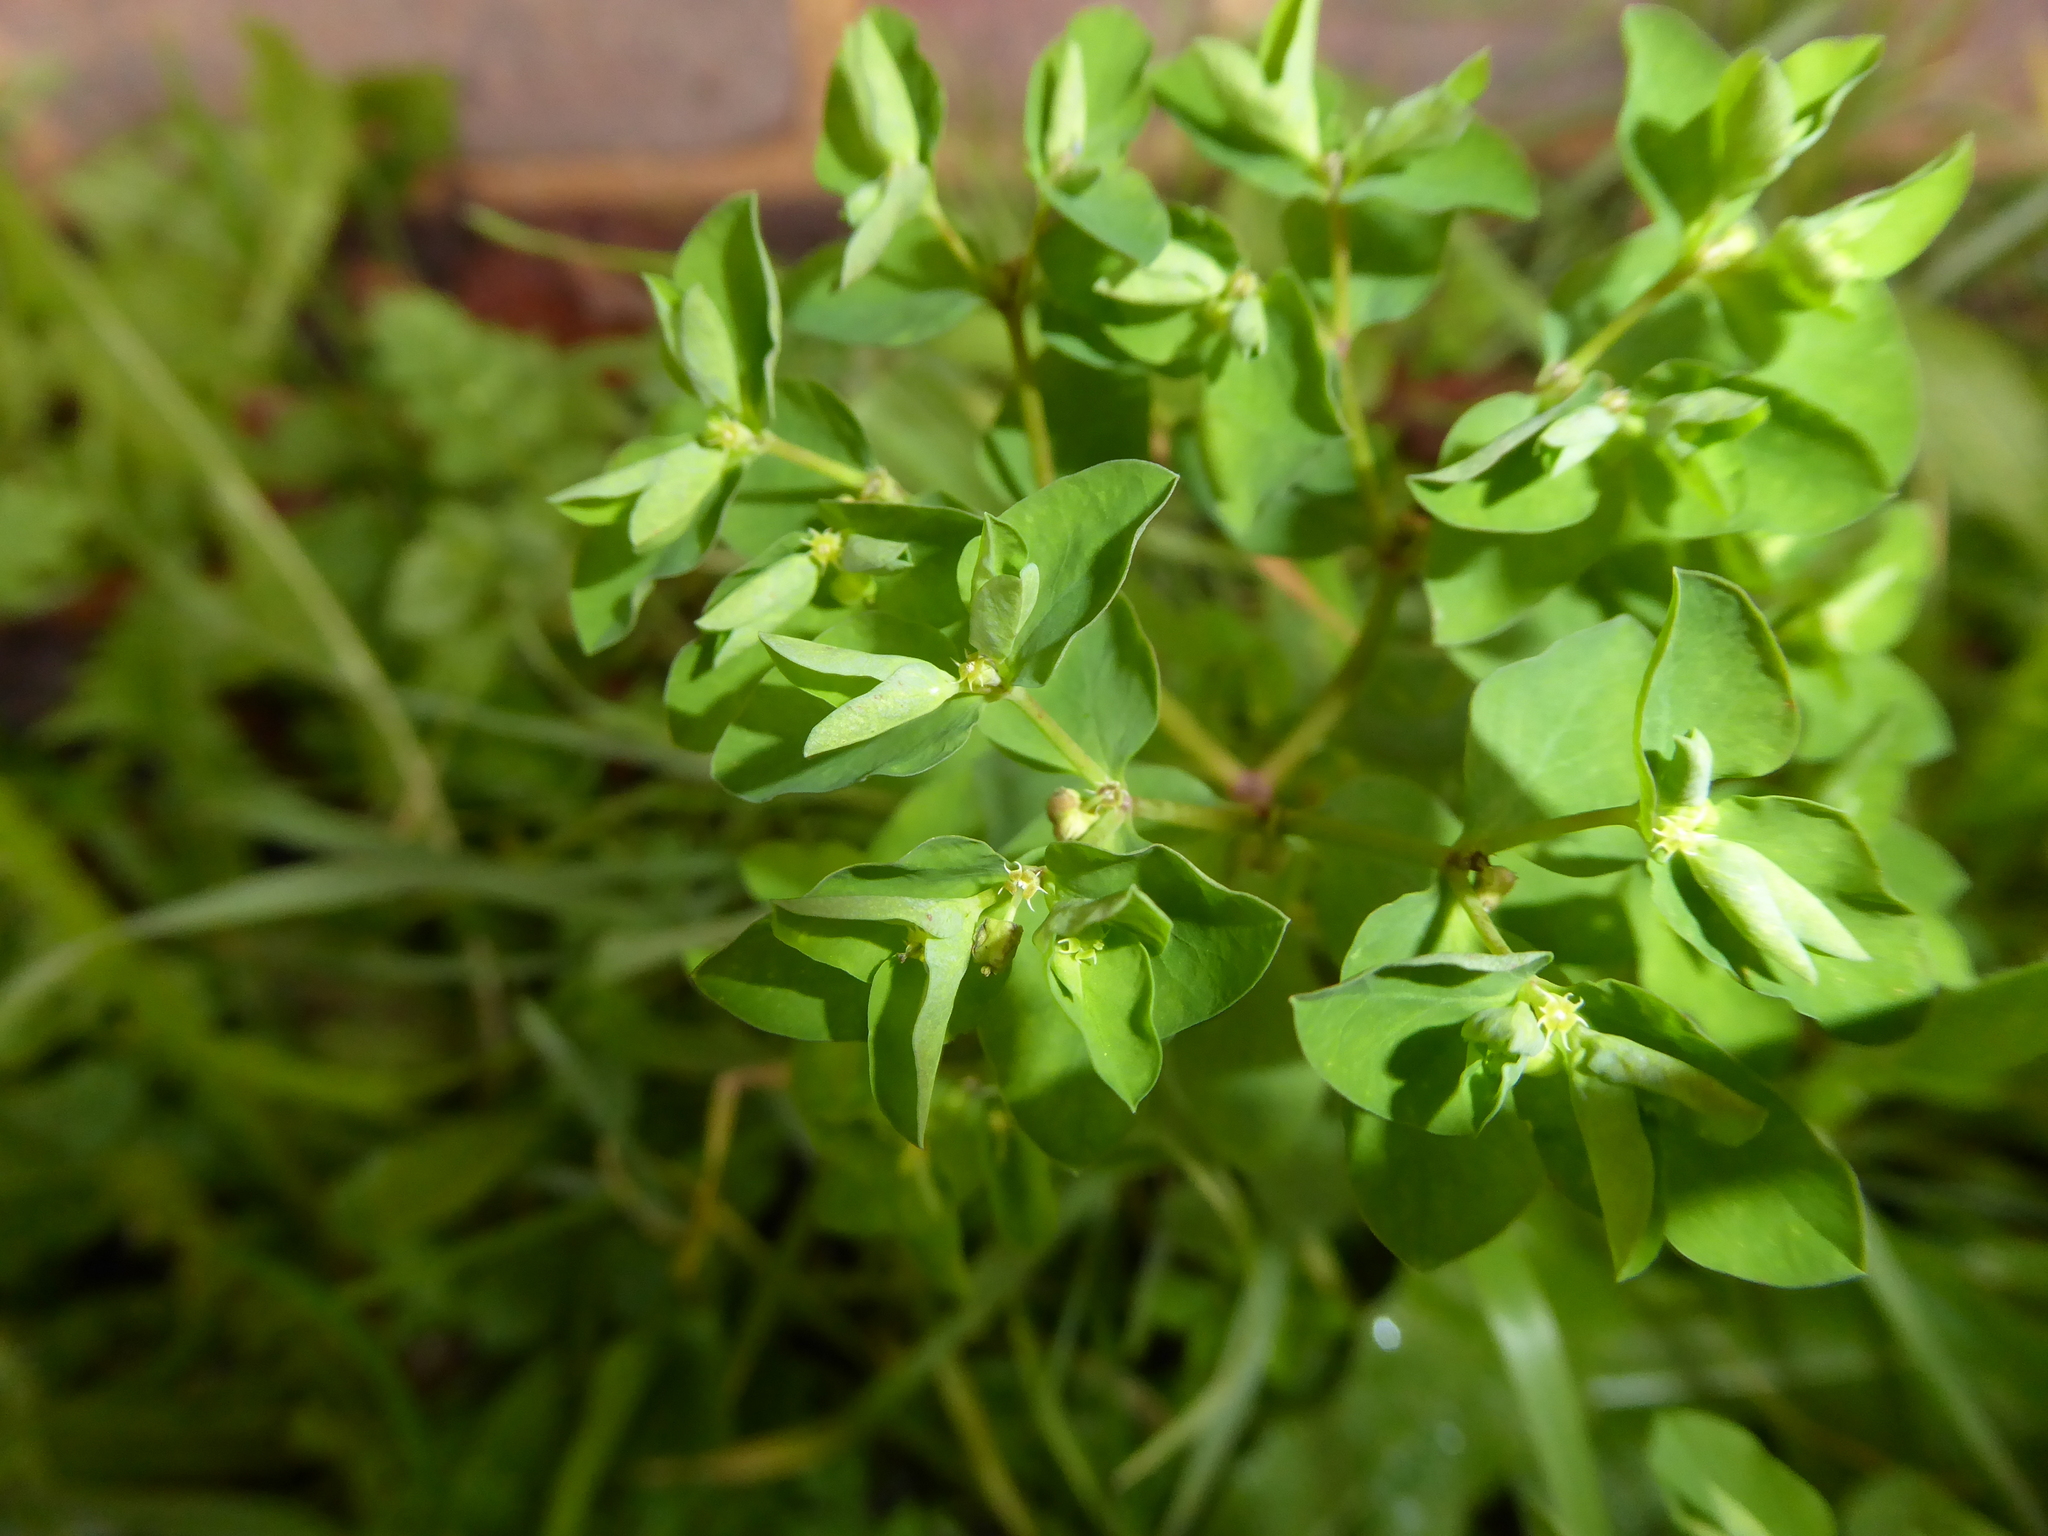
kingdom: Plantae
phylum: Tracheophyta
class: Magnoliopsida
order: Malpighiales
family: Euphorbiaceae
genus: Euphorbia
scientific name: Euphorbia peplus
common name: Petty spurge
